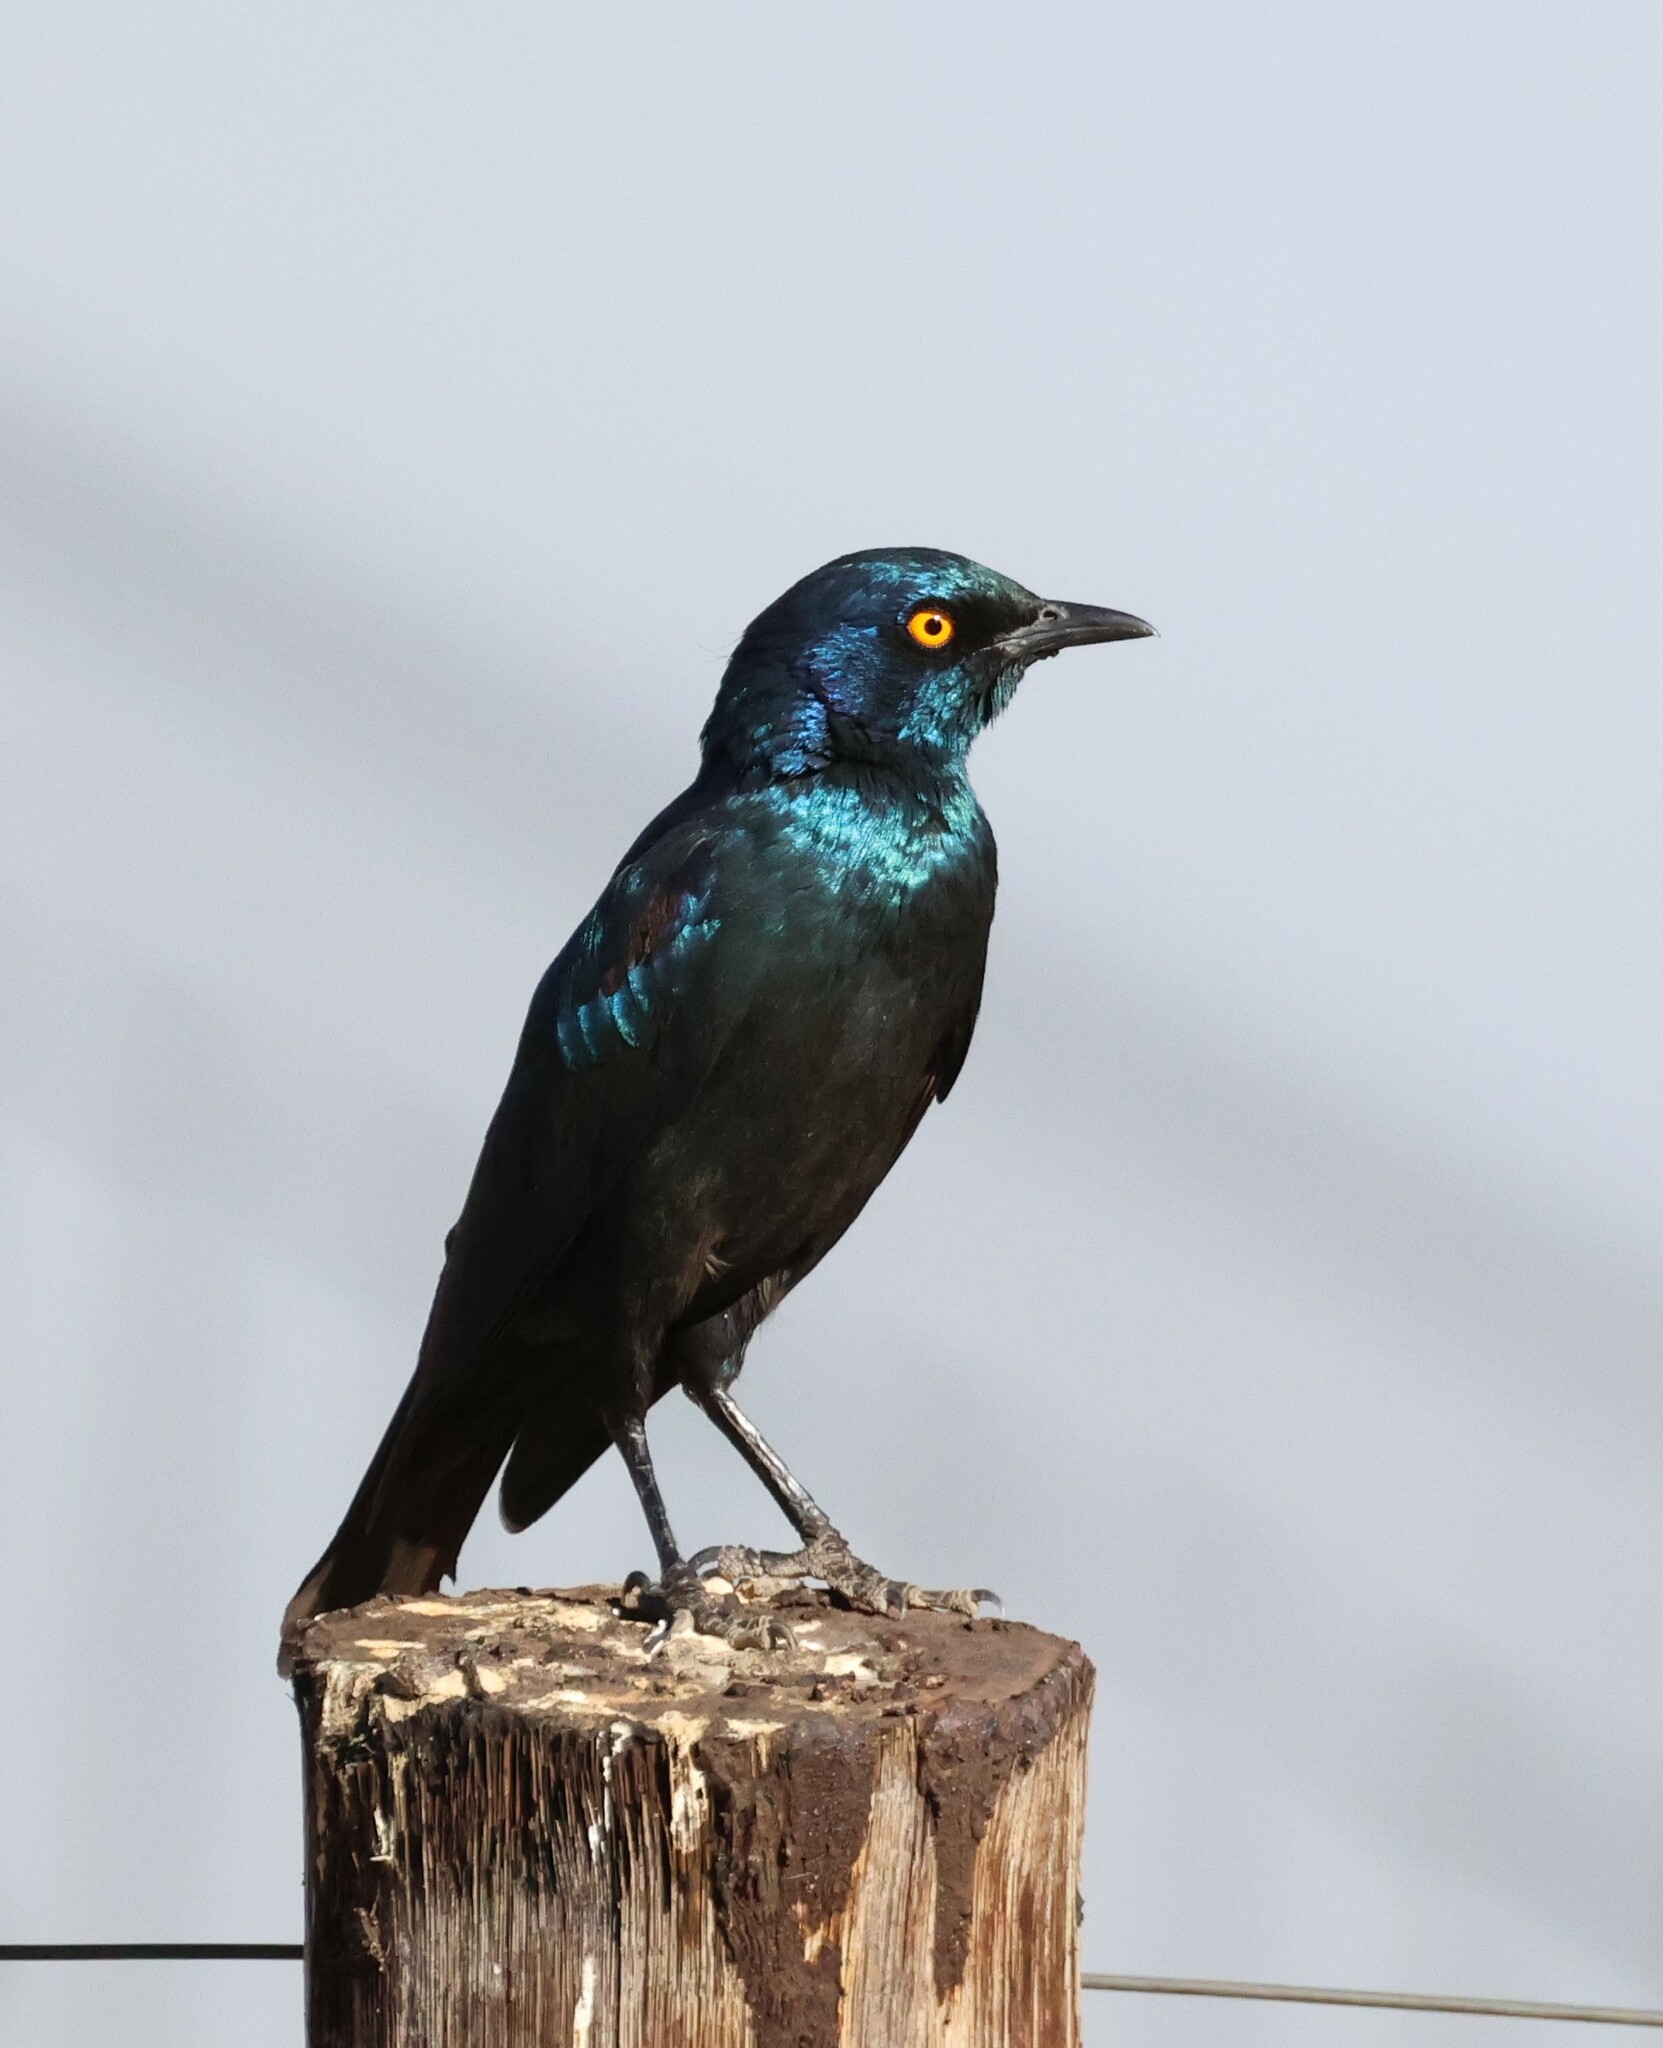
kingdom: Animalia
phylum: Chordata
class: Aves
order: Passeriformes
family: Sturnidae
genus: Lamprotornis
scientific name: Lamprotornis nitens
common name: Cape starling
